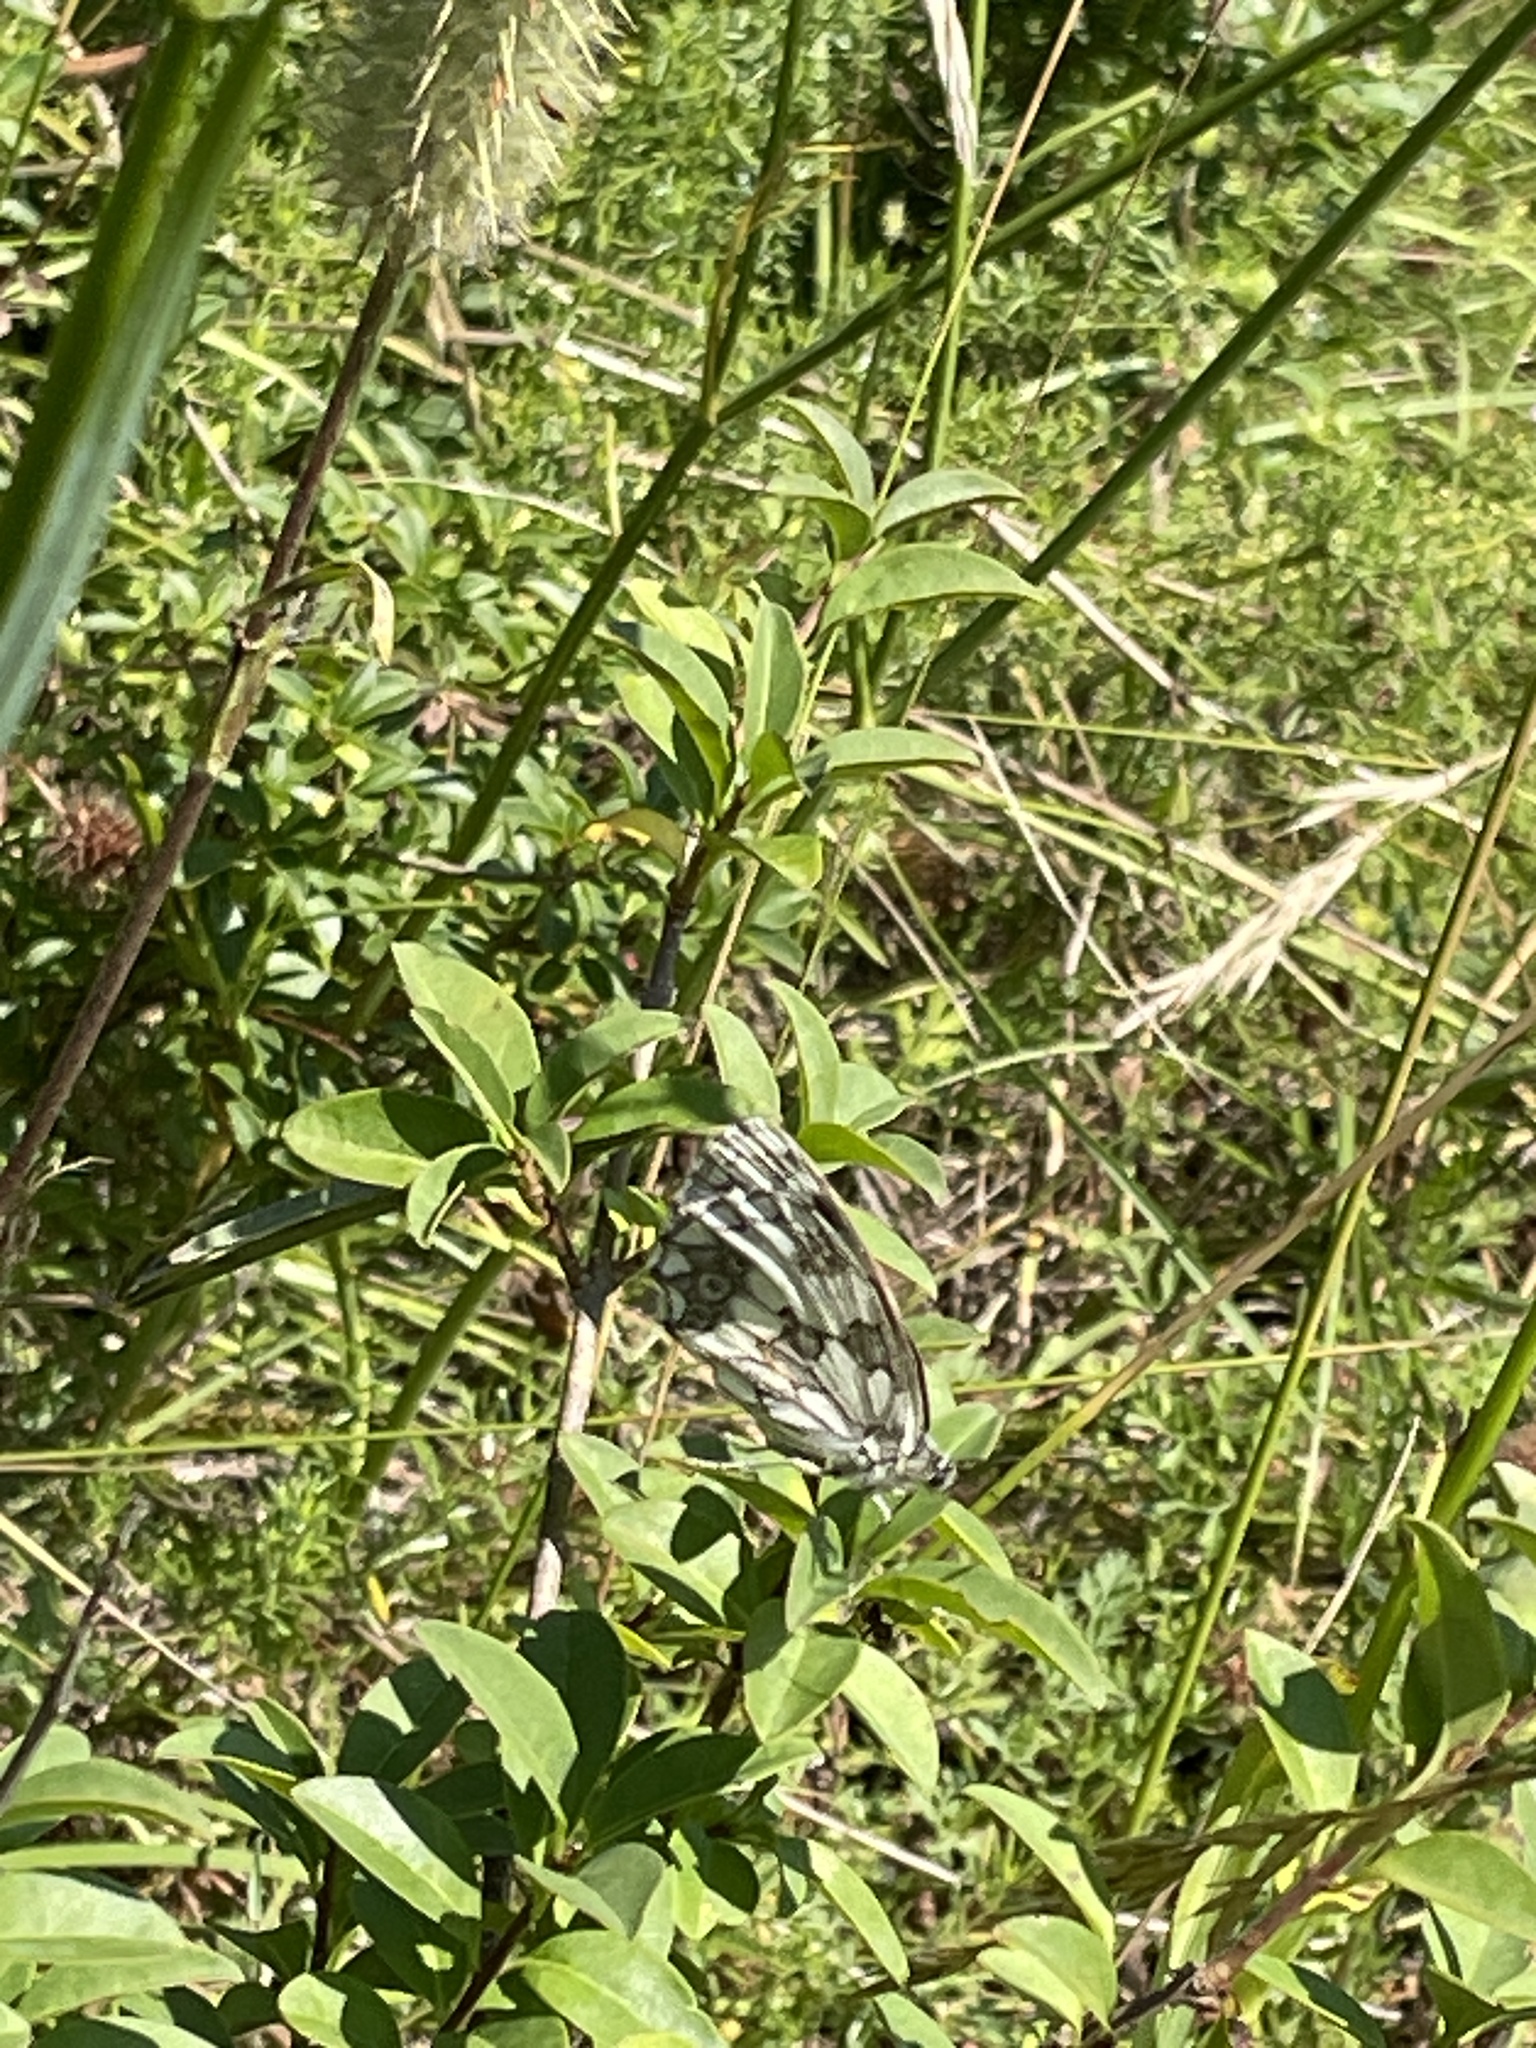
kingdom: Animalia
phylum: Arthropoda
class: Insecta
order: Lepidoptera
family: Nymphalidae
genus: Melanargia
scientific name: Melanargia galathea
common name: Marbled white
